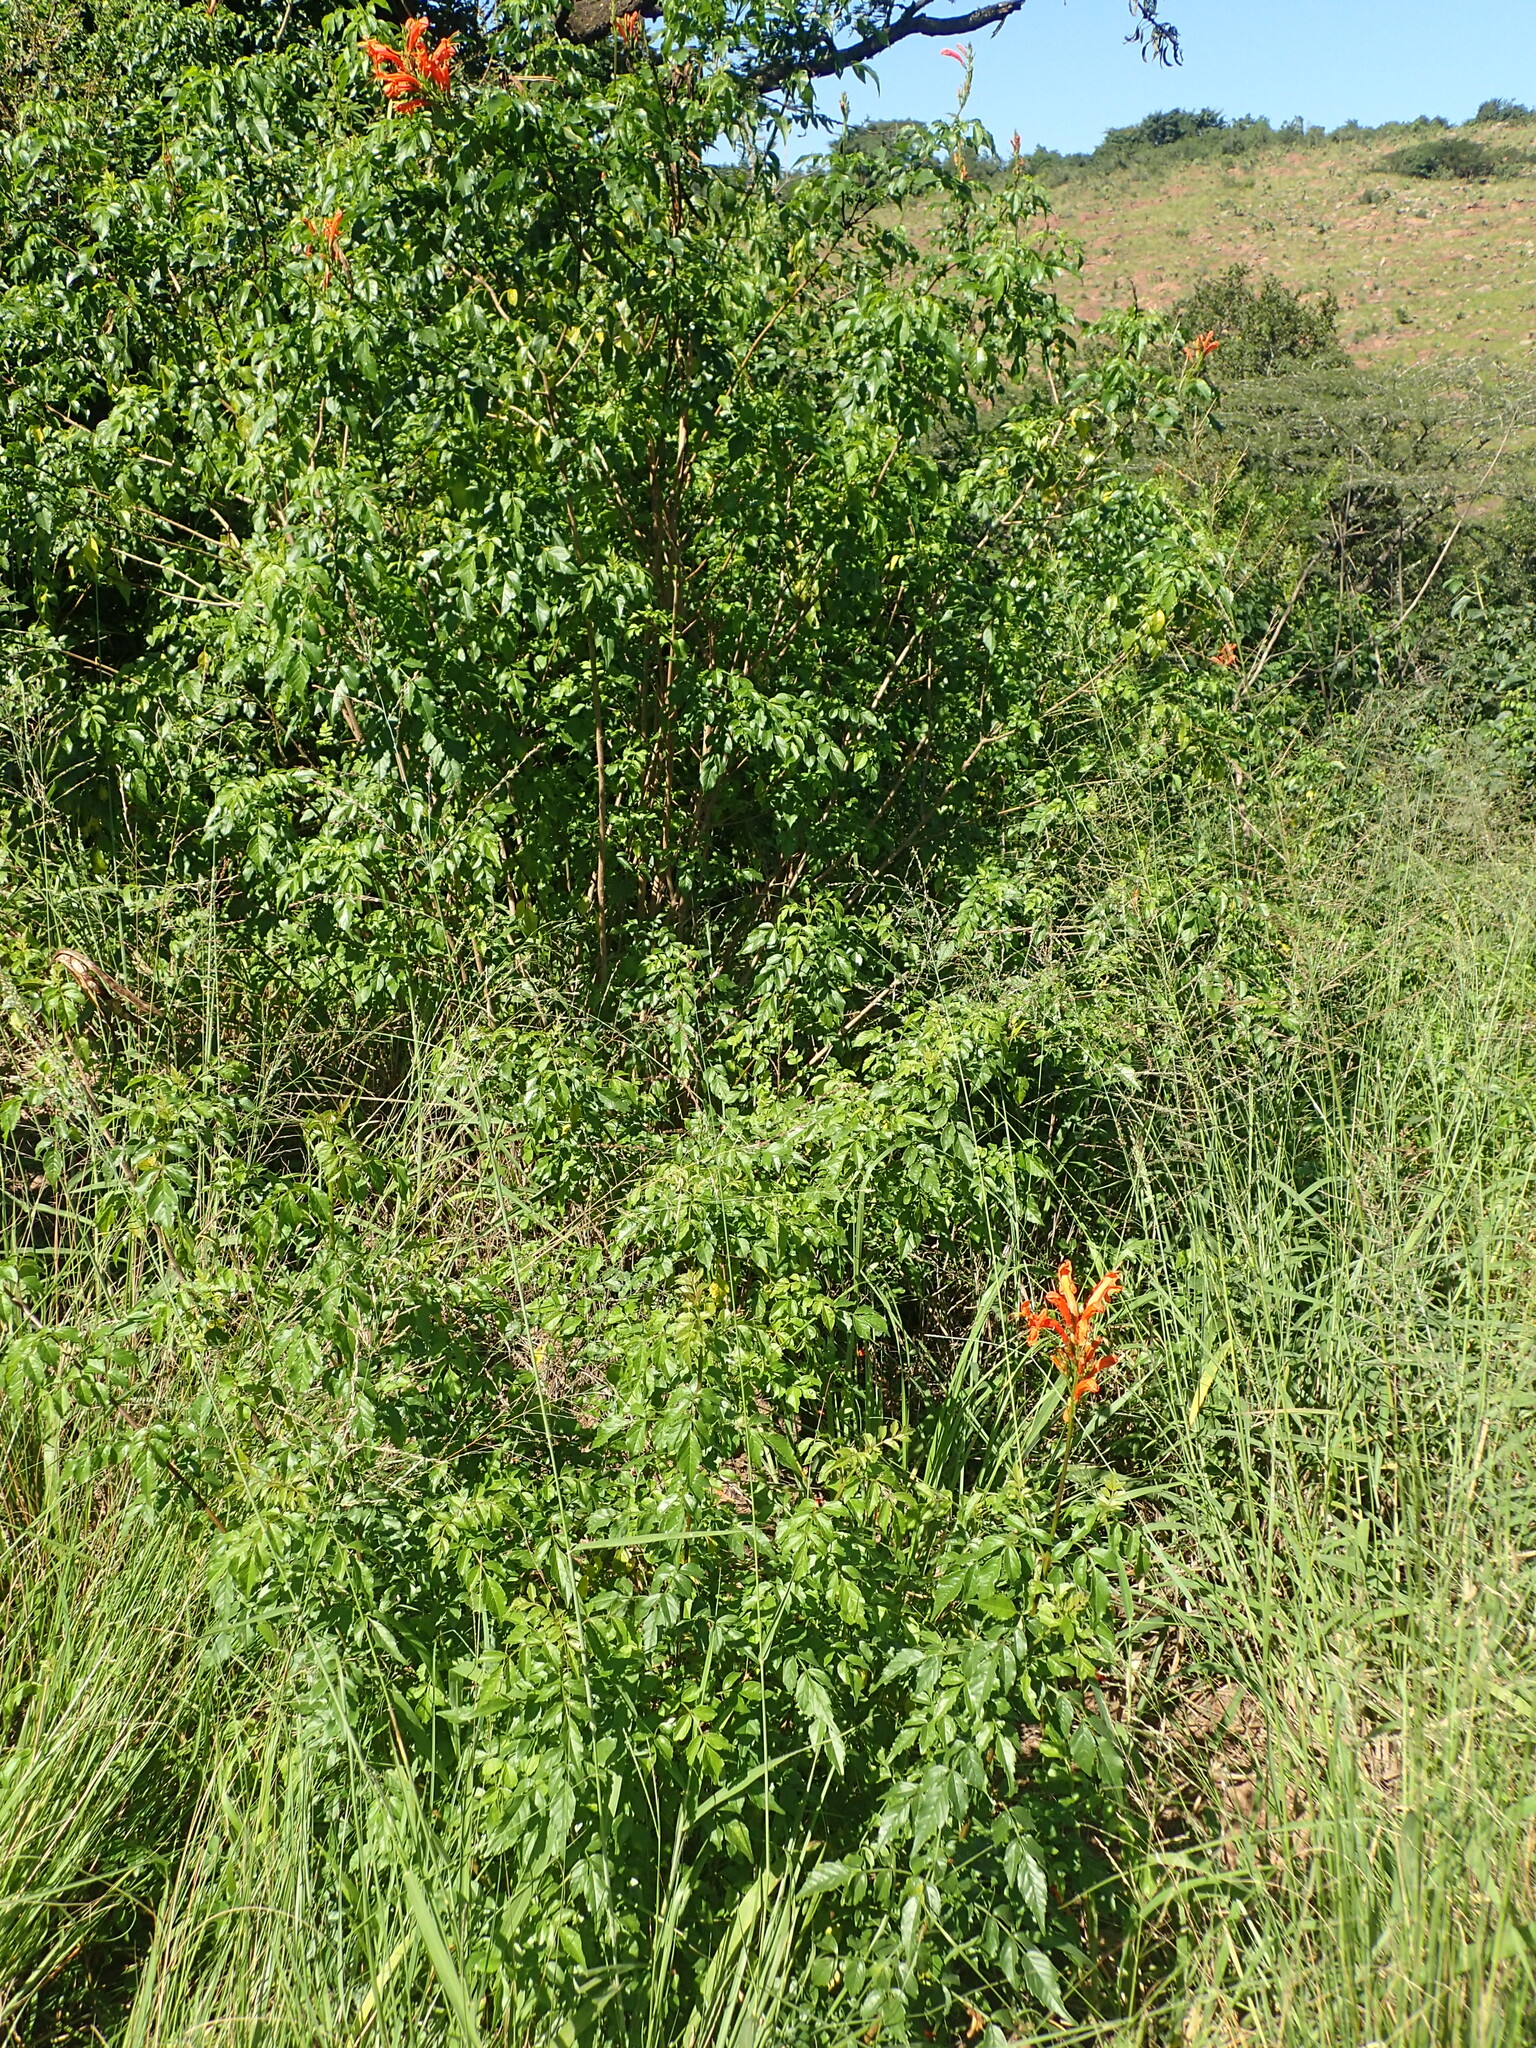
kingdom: Plantae
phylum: Tracheophyta
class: Magnoliopsida
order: Lamiales
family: Bignoniaceae
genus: Tecomaria
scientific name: Tecomaria capensis
